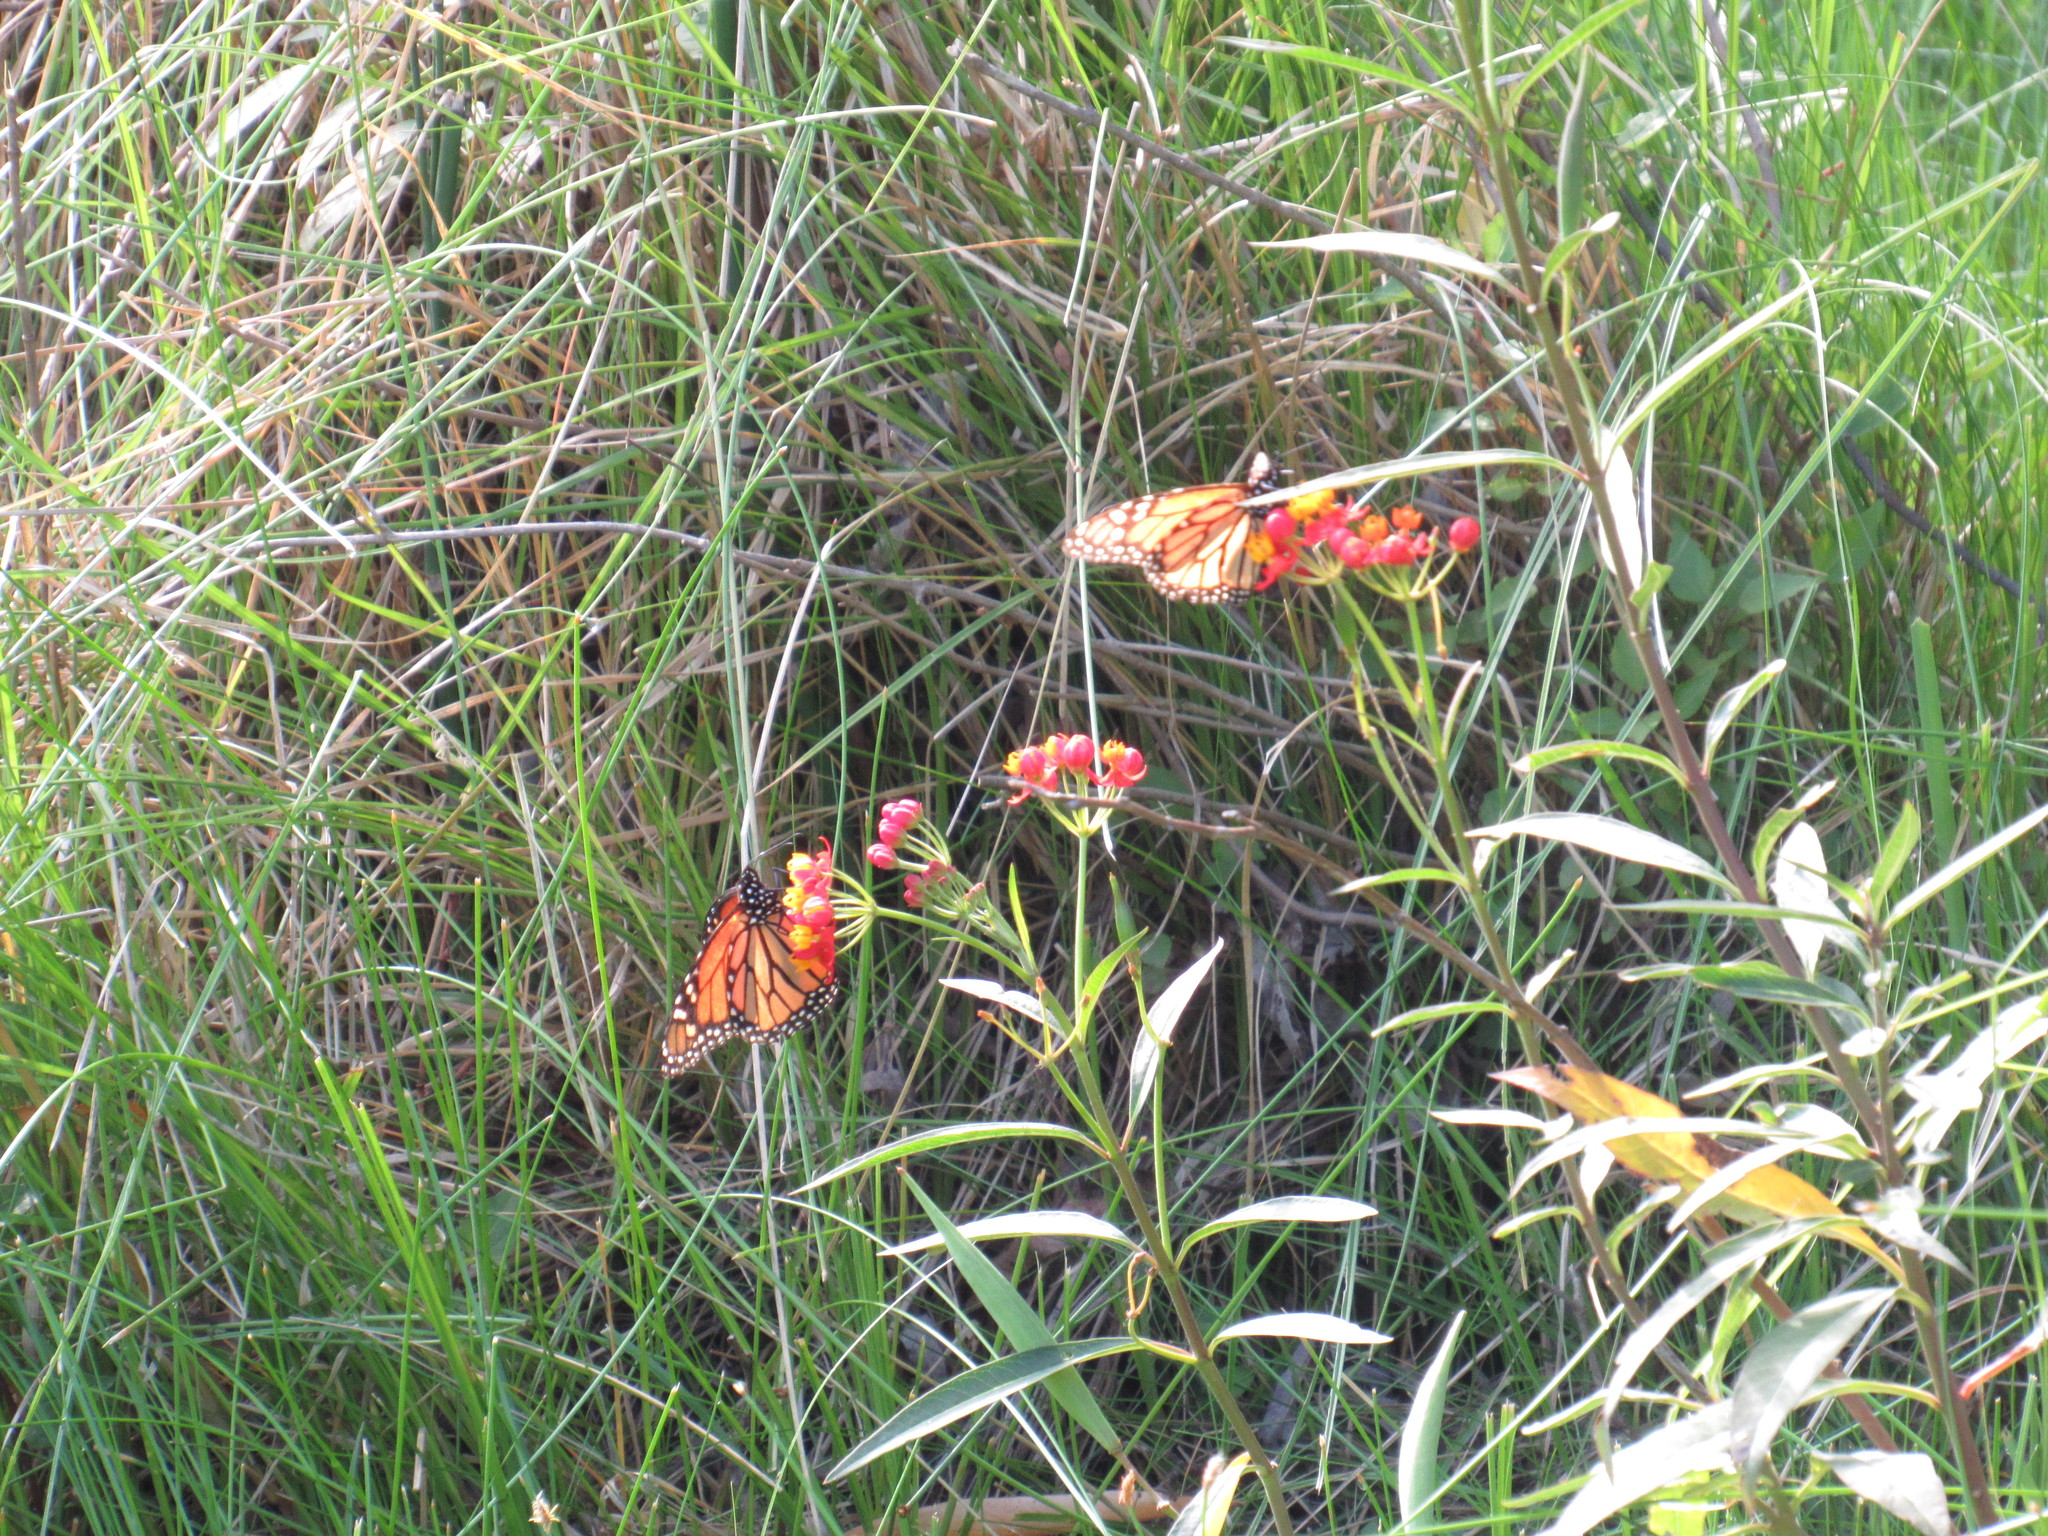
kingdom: Animalia
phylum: Arthropoda
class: Insecta
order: Lepidoptera
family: Nymphalidae
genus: Danaus
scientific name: Danaus plexippus
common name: Monarch
